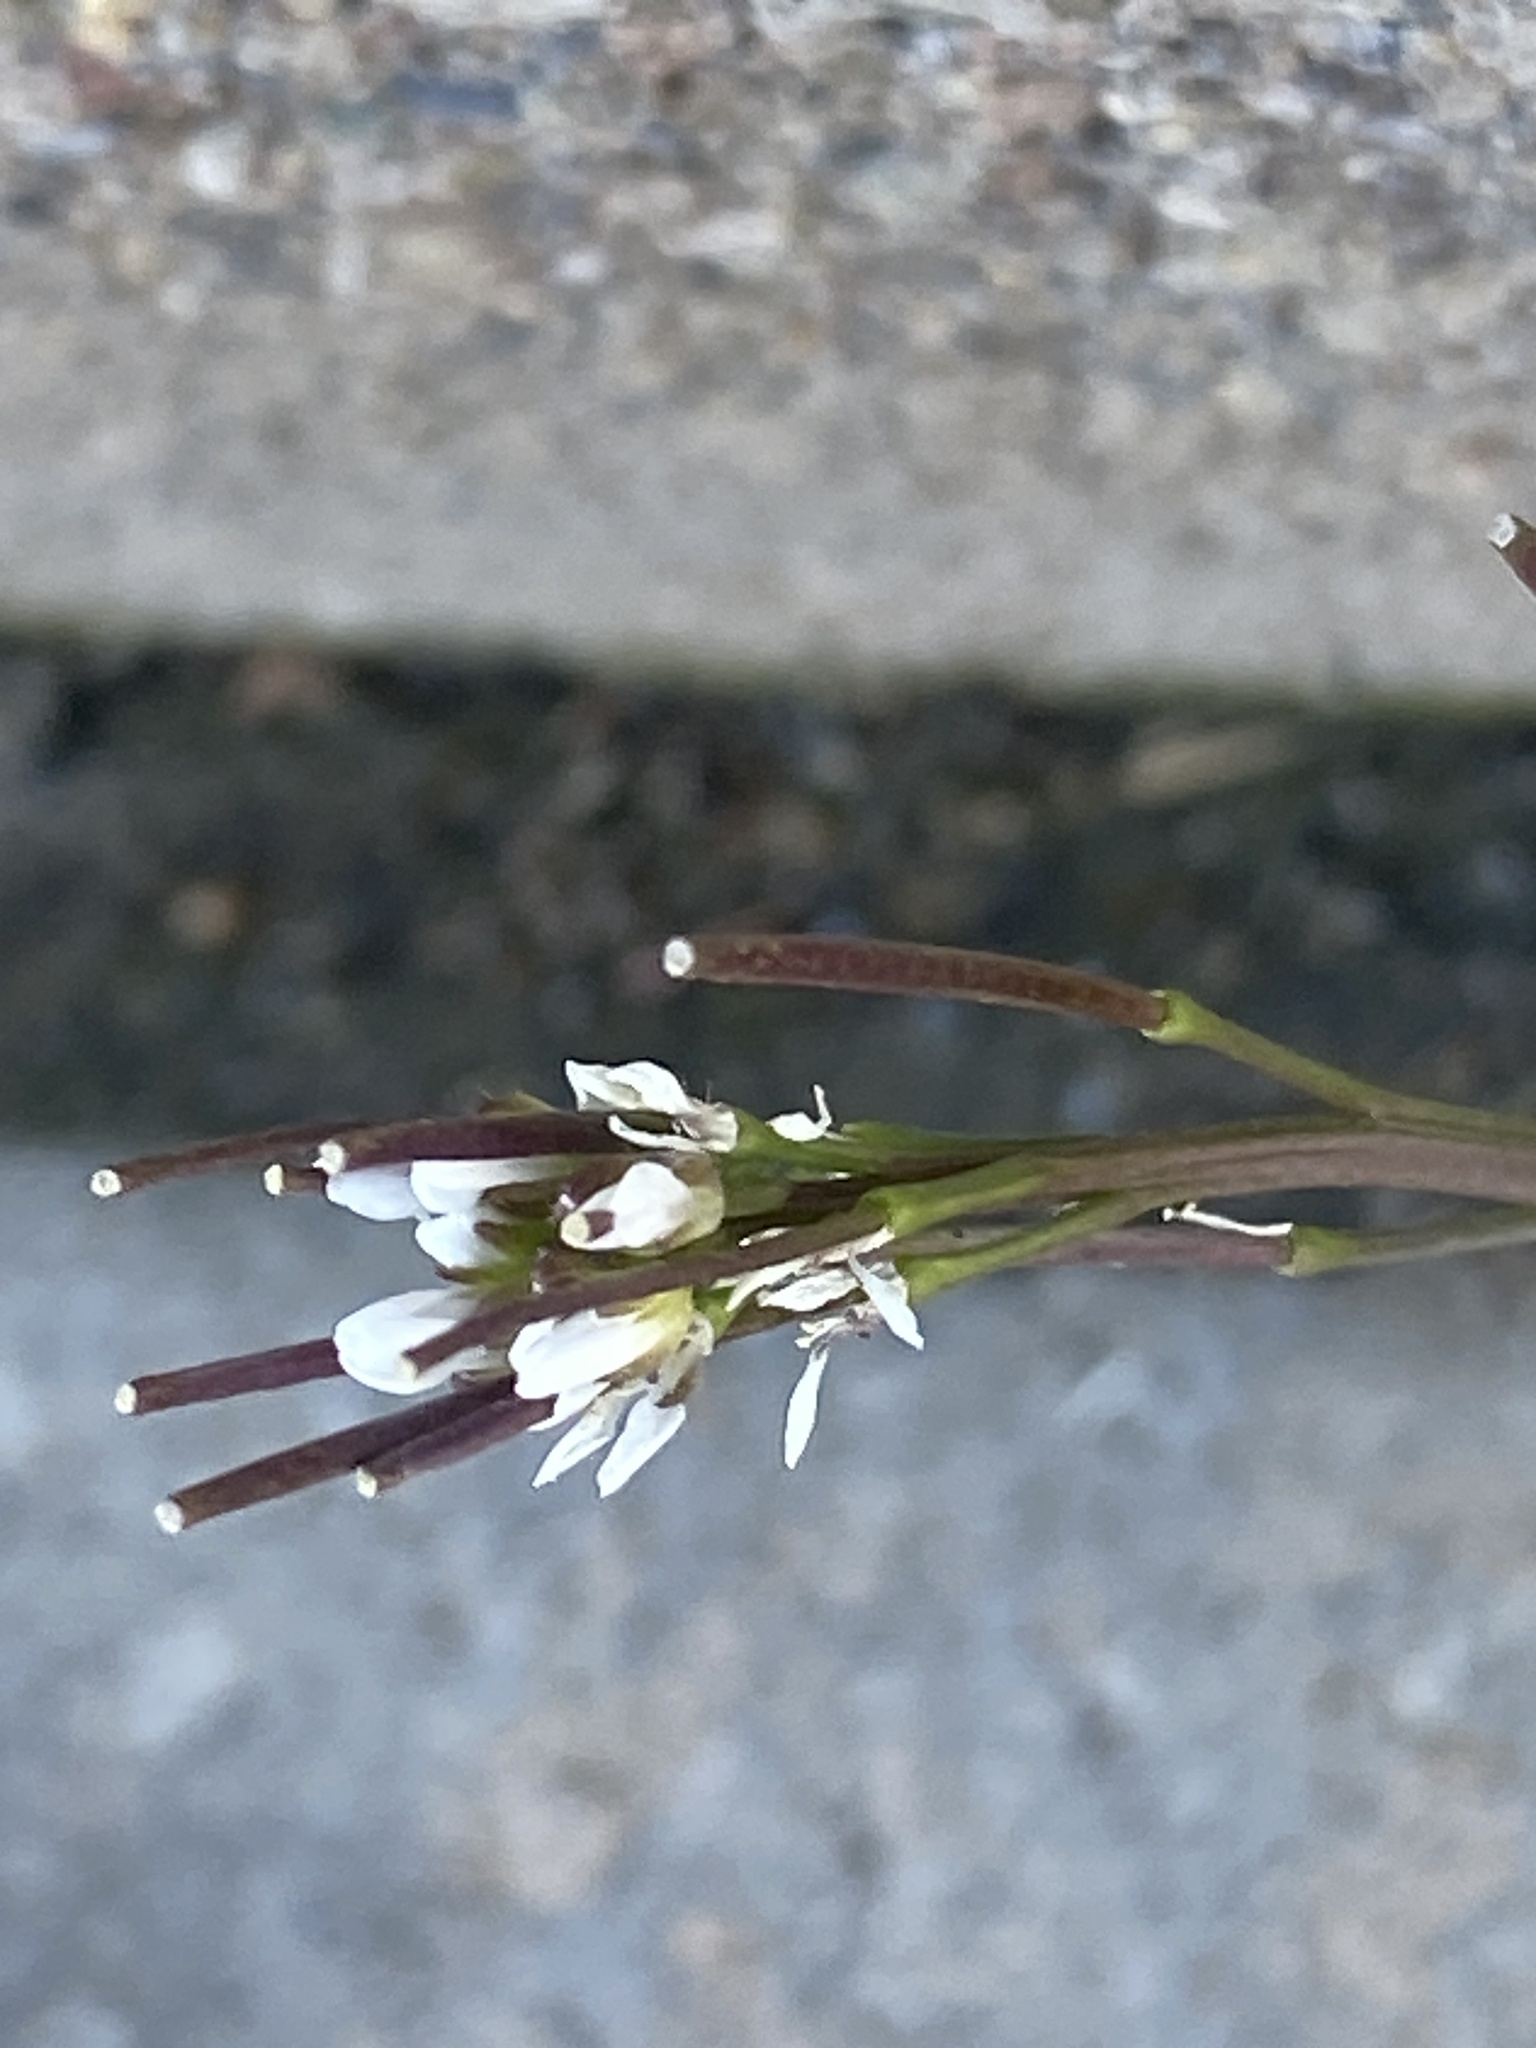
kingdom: Plantae
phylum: Tracheophyta
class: Magnoliopsida
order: Brassicales
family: Brassicaceae
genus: Cardamine
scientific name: Cardamine hirsuta
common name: Hairy bittercress
